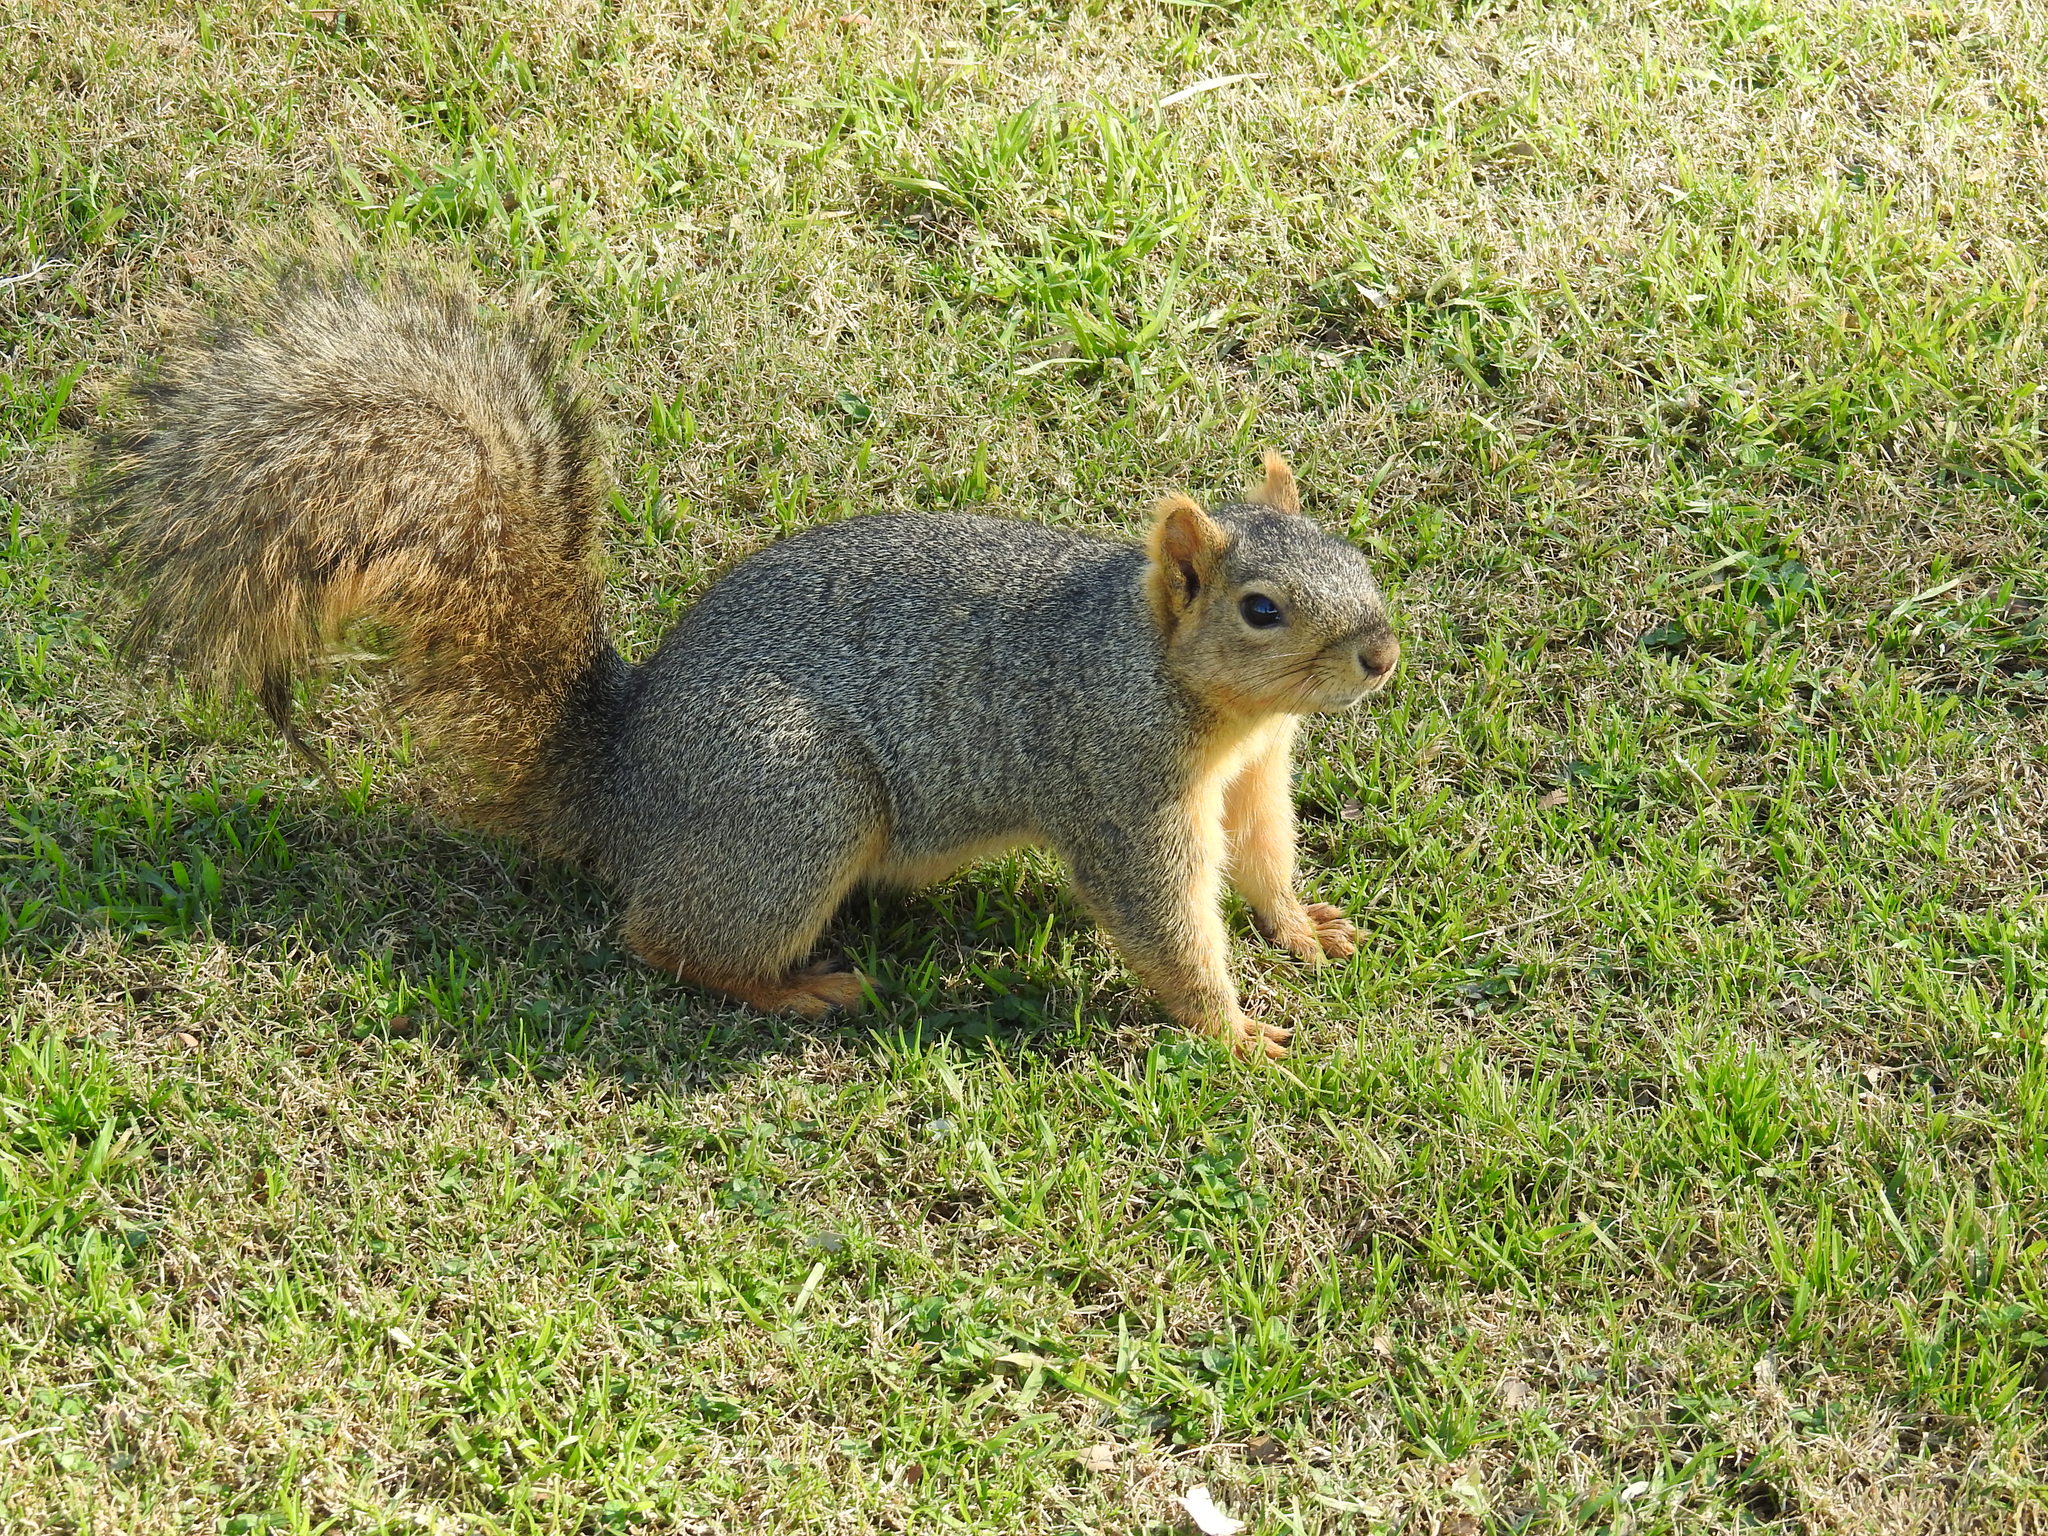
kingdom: Animalia
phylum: Chordata
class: Mammalia
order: Rodentia
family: Sciuridae
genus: Sciurus
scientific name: Sciurus niger
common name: Fox squirrel
